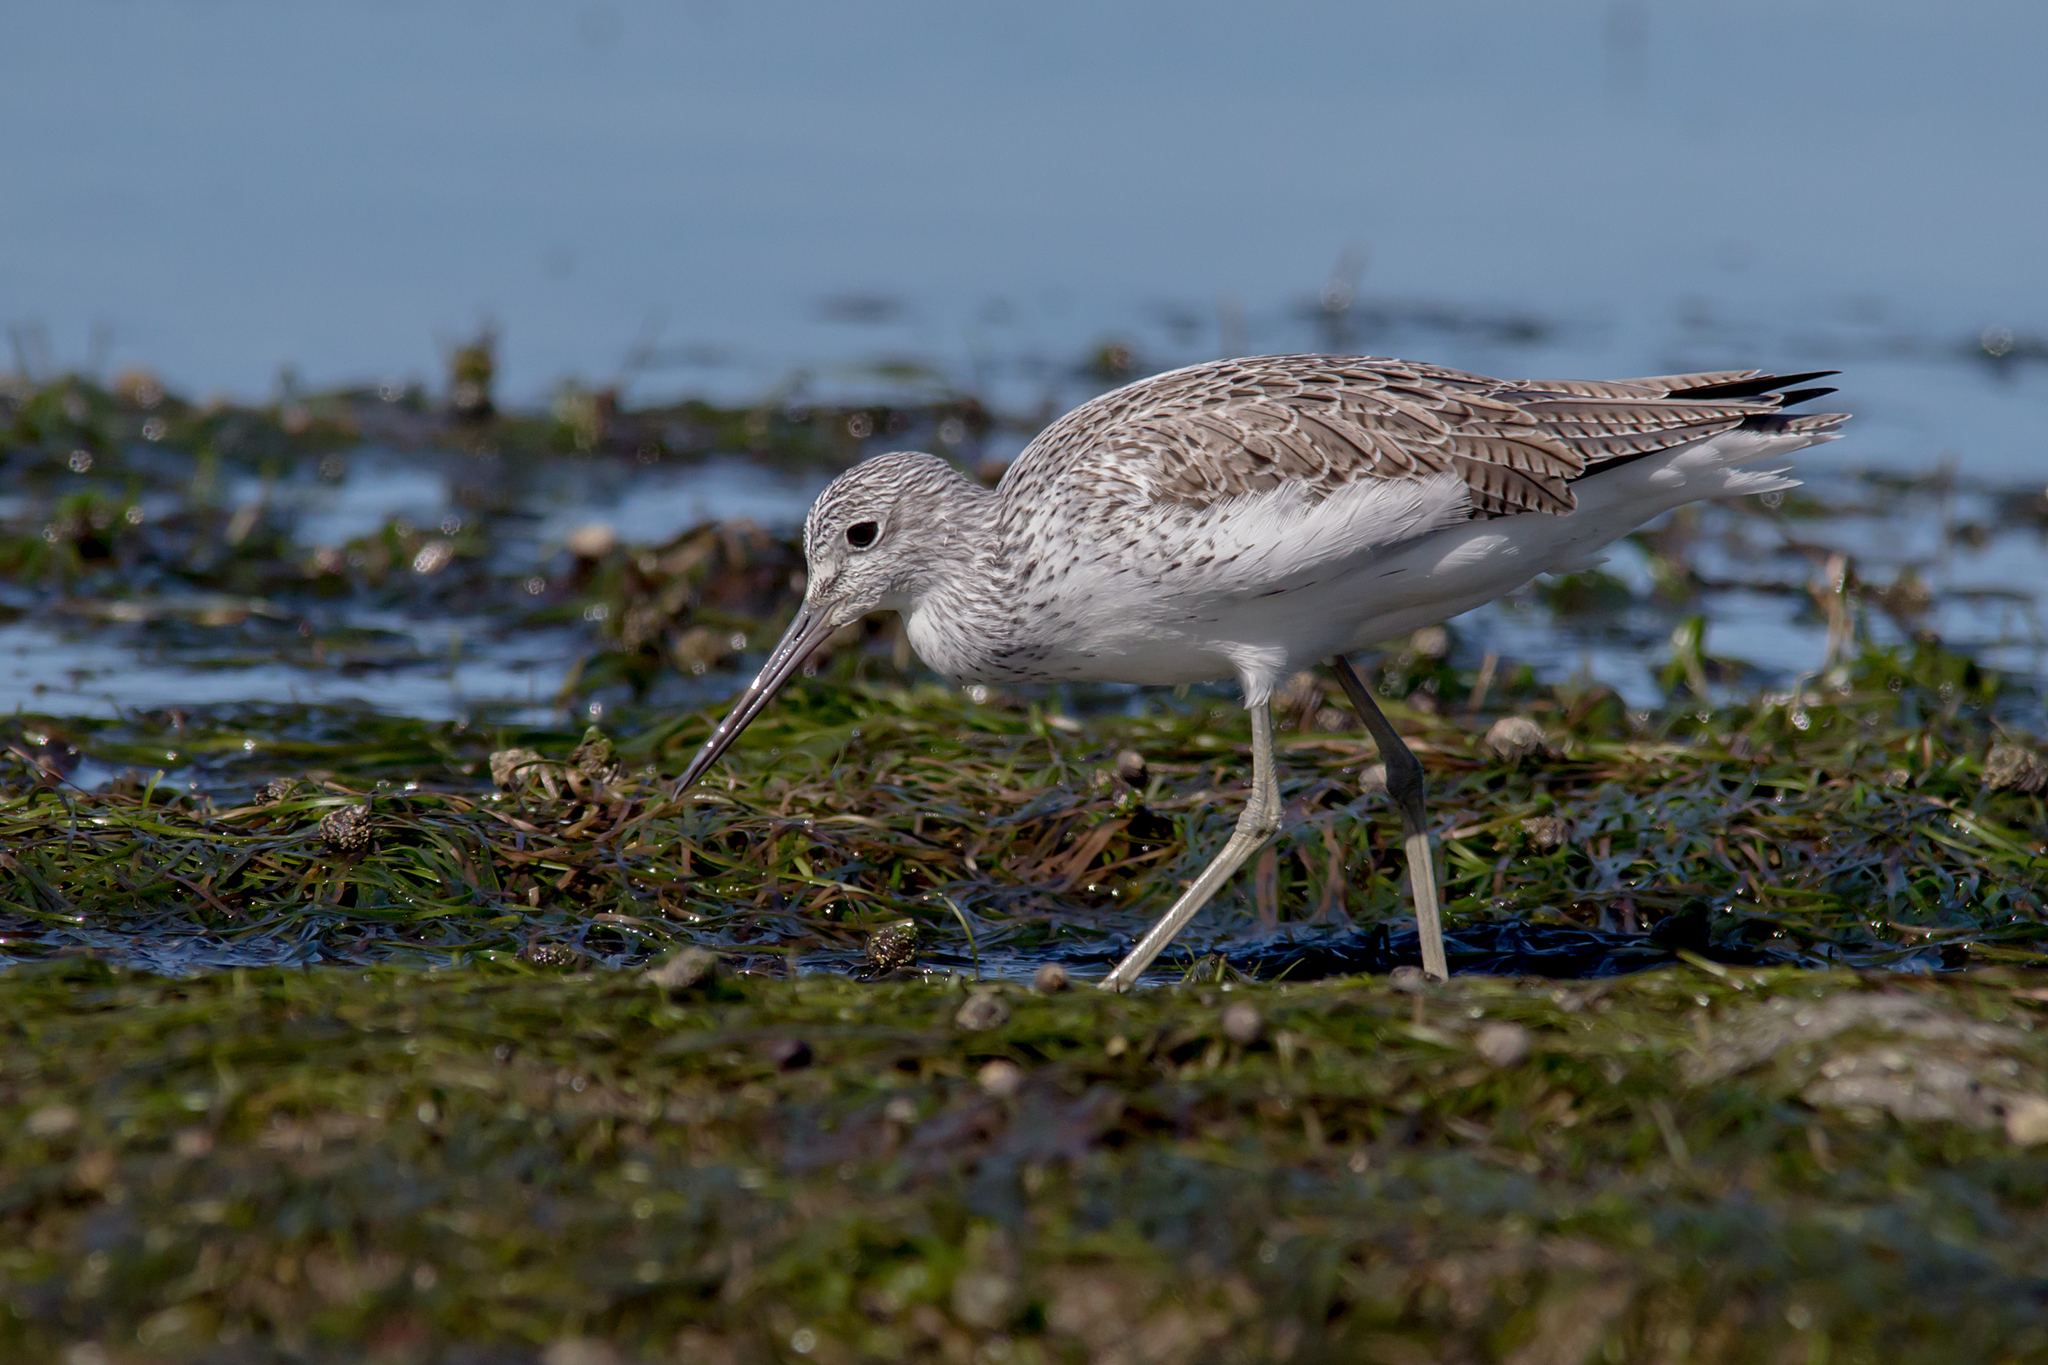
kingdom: Animalia
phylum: Chordata
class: Aves
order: Charadriiformes
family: Scolopacidae
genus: Tringa
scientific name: Tringa nebularia
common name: Common greenshank
